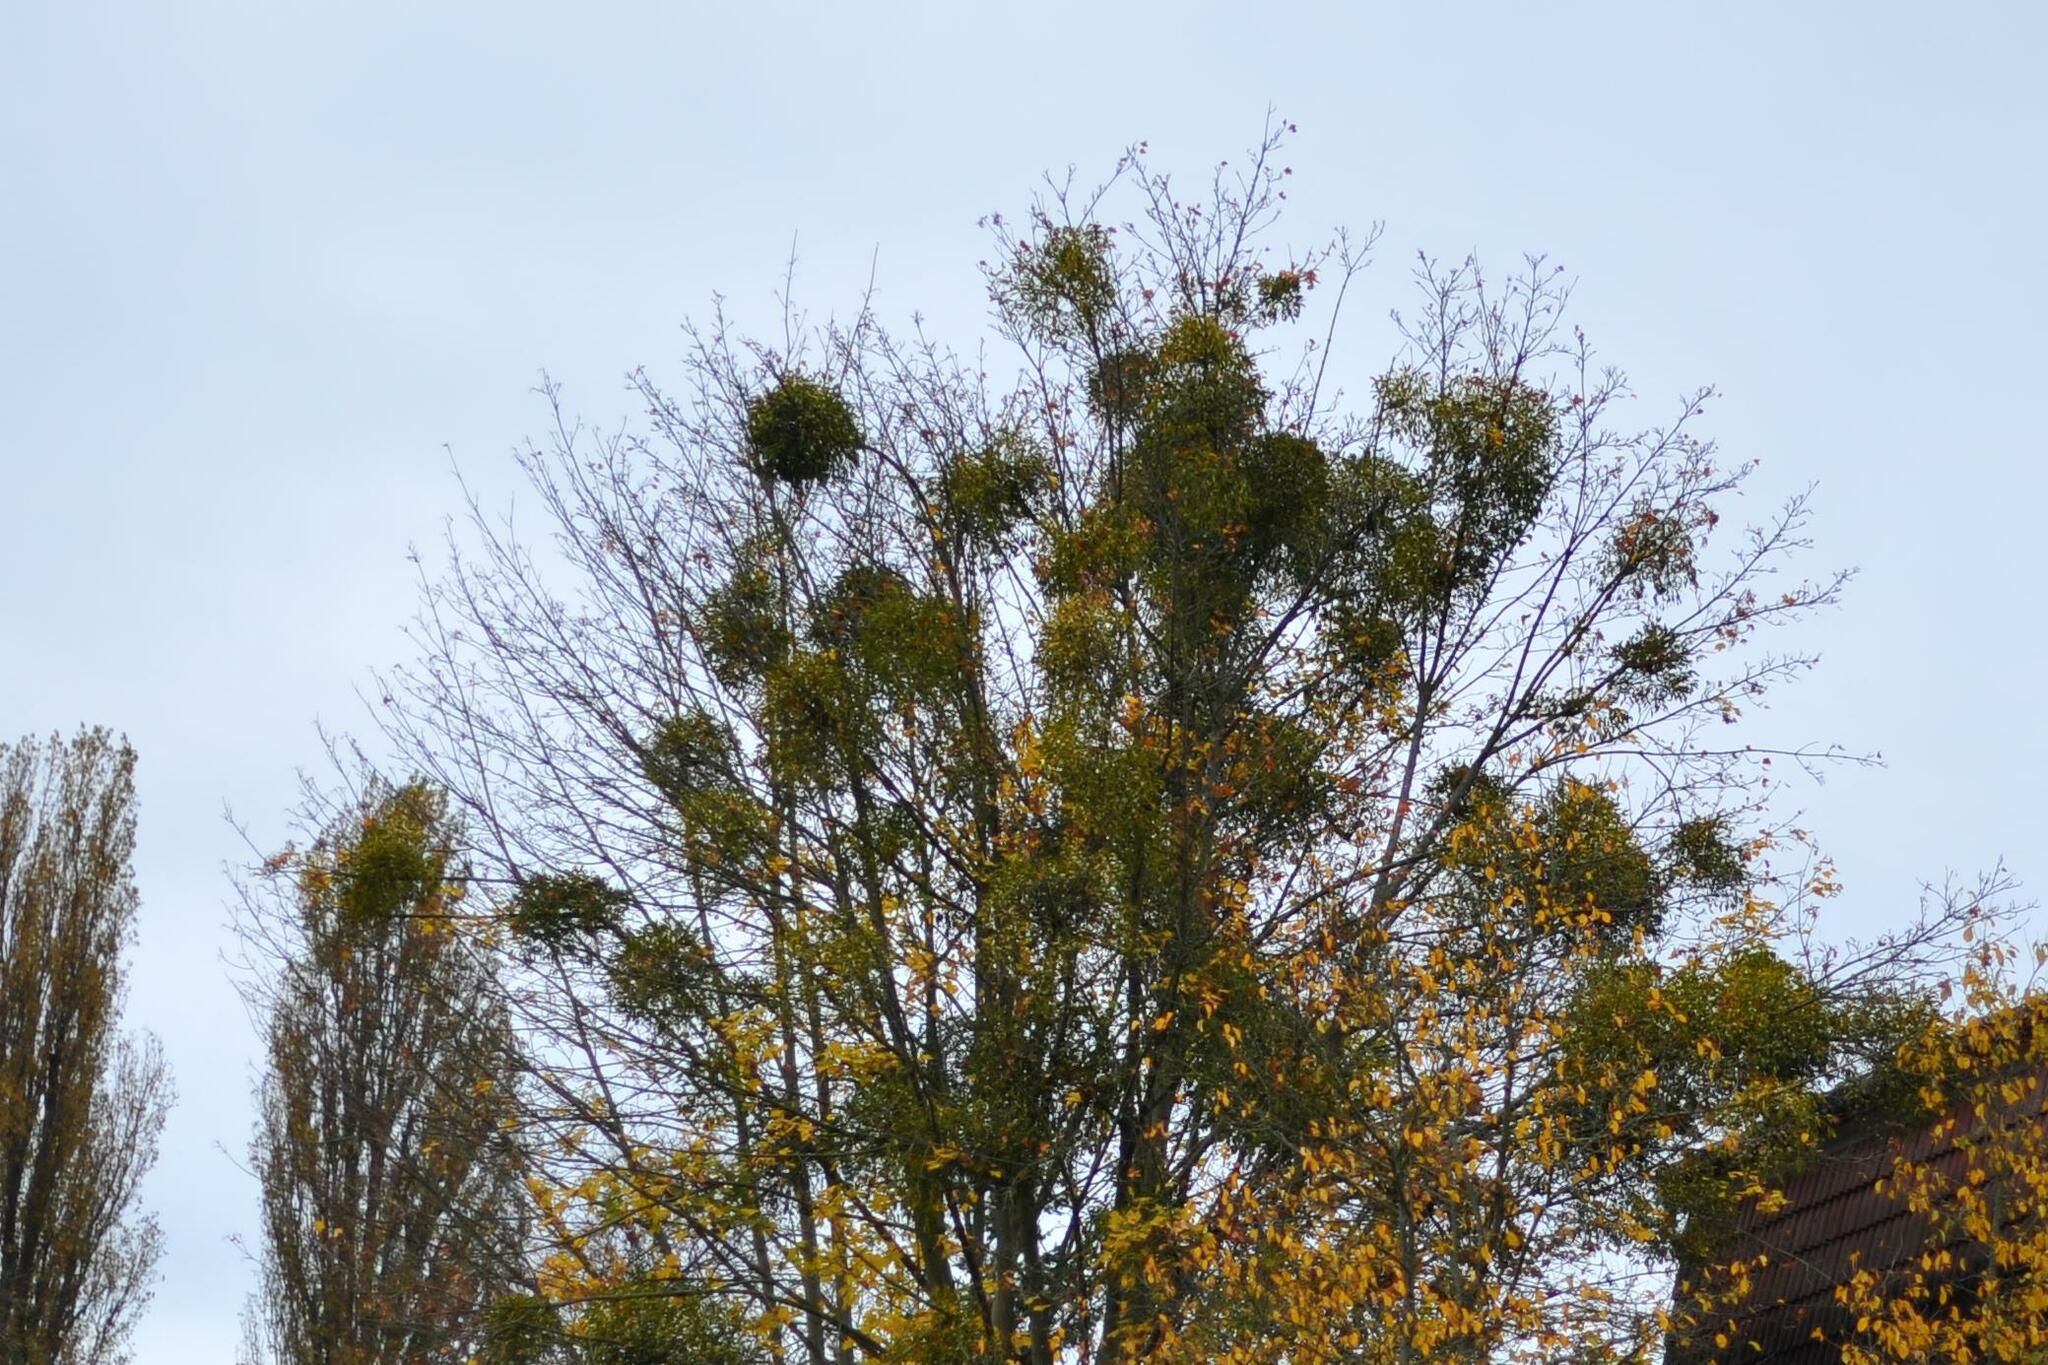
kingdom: Plantae
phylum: Tracheophyta
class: Magnoliopsida
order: Santalales
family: Viscaceae
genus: Viscum
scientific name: Viscum album
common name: Mistletoe
